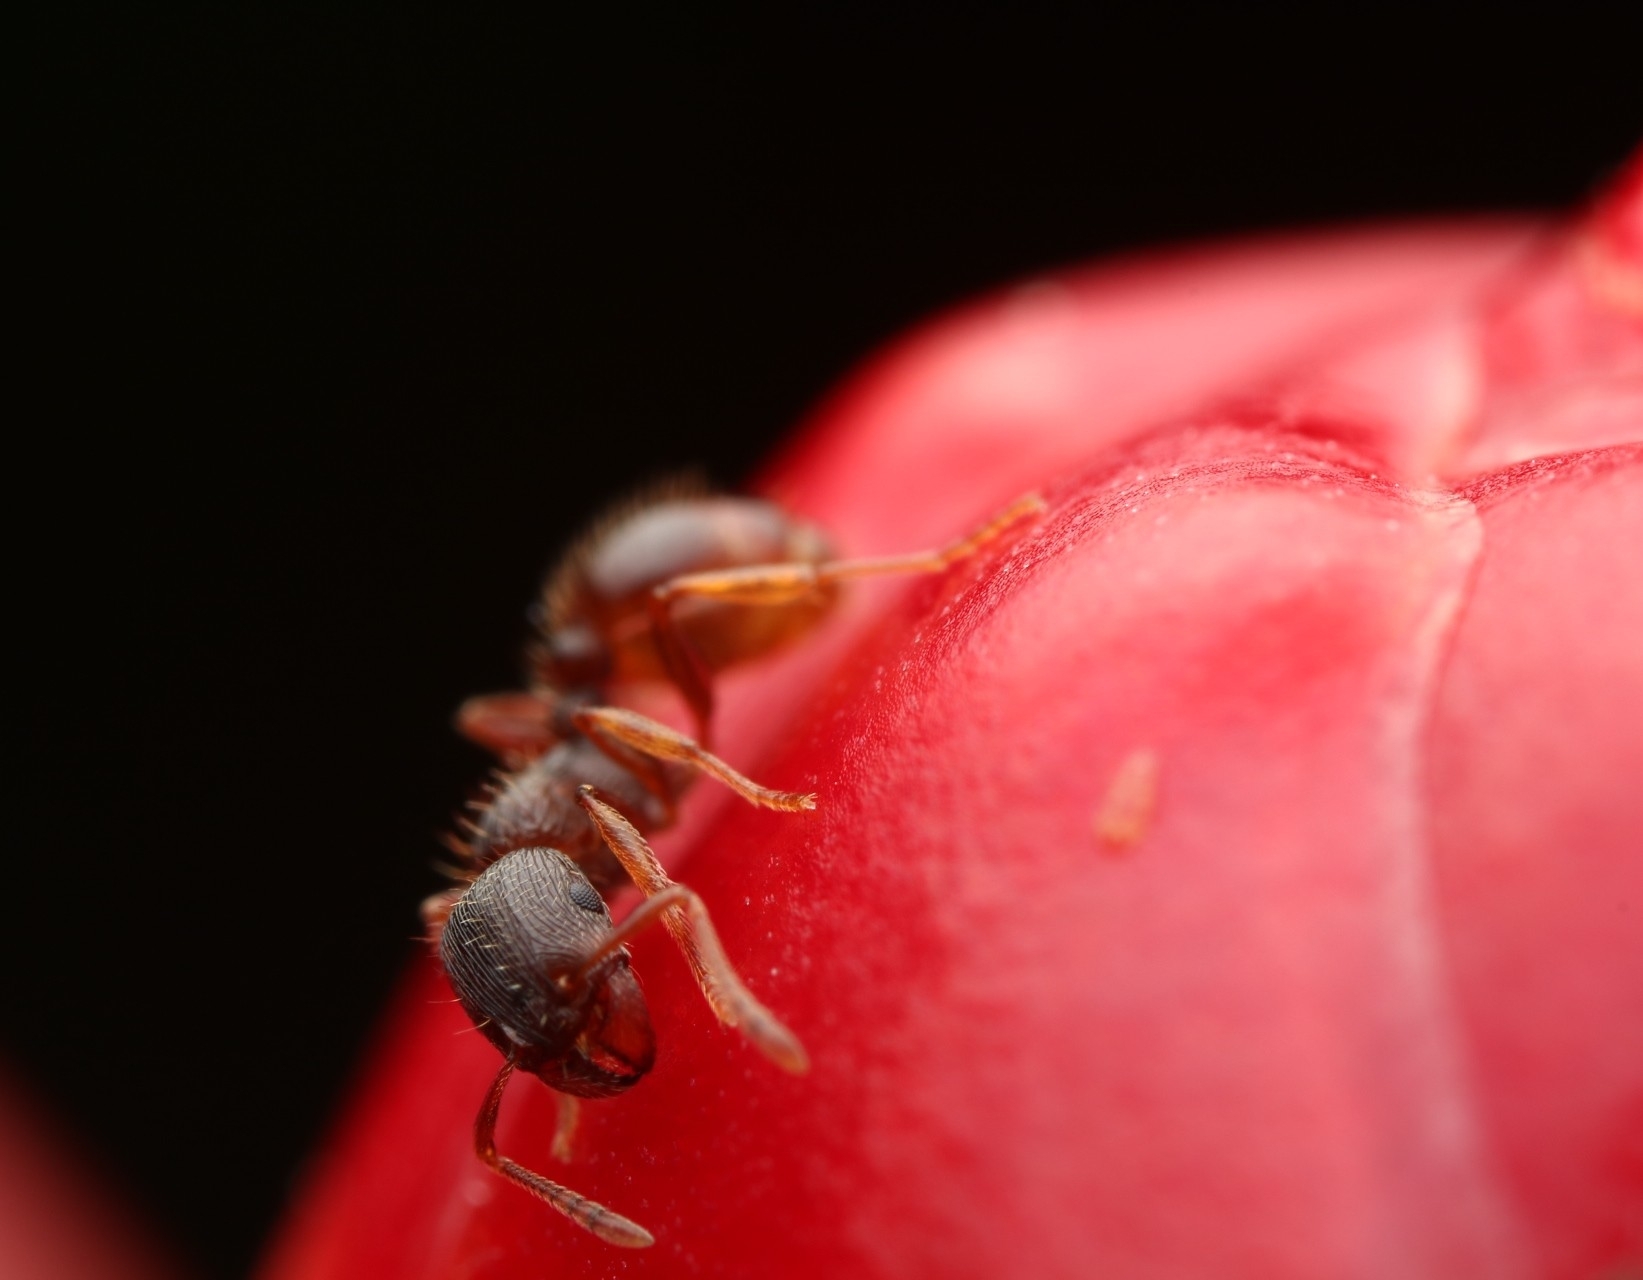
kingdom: Animalia
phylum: Arthropoda
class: Insecta
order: Hymenoptera
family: Formicidae
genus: Tetramorium
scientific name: Tetramorium immigrans
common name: Pavement ant
